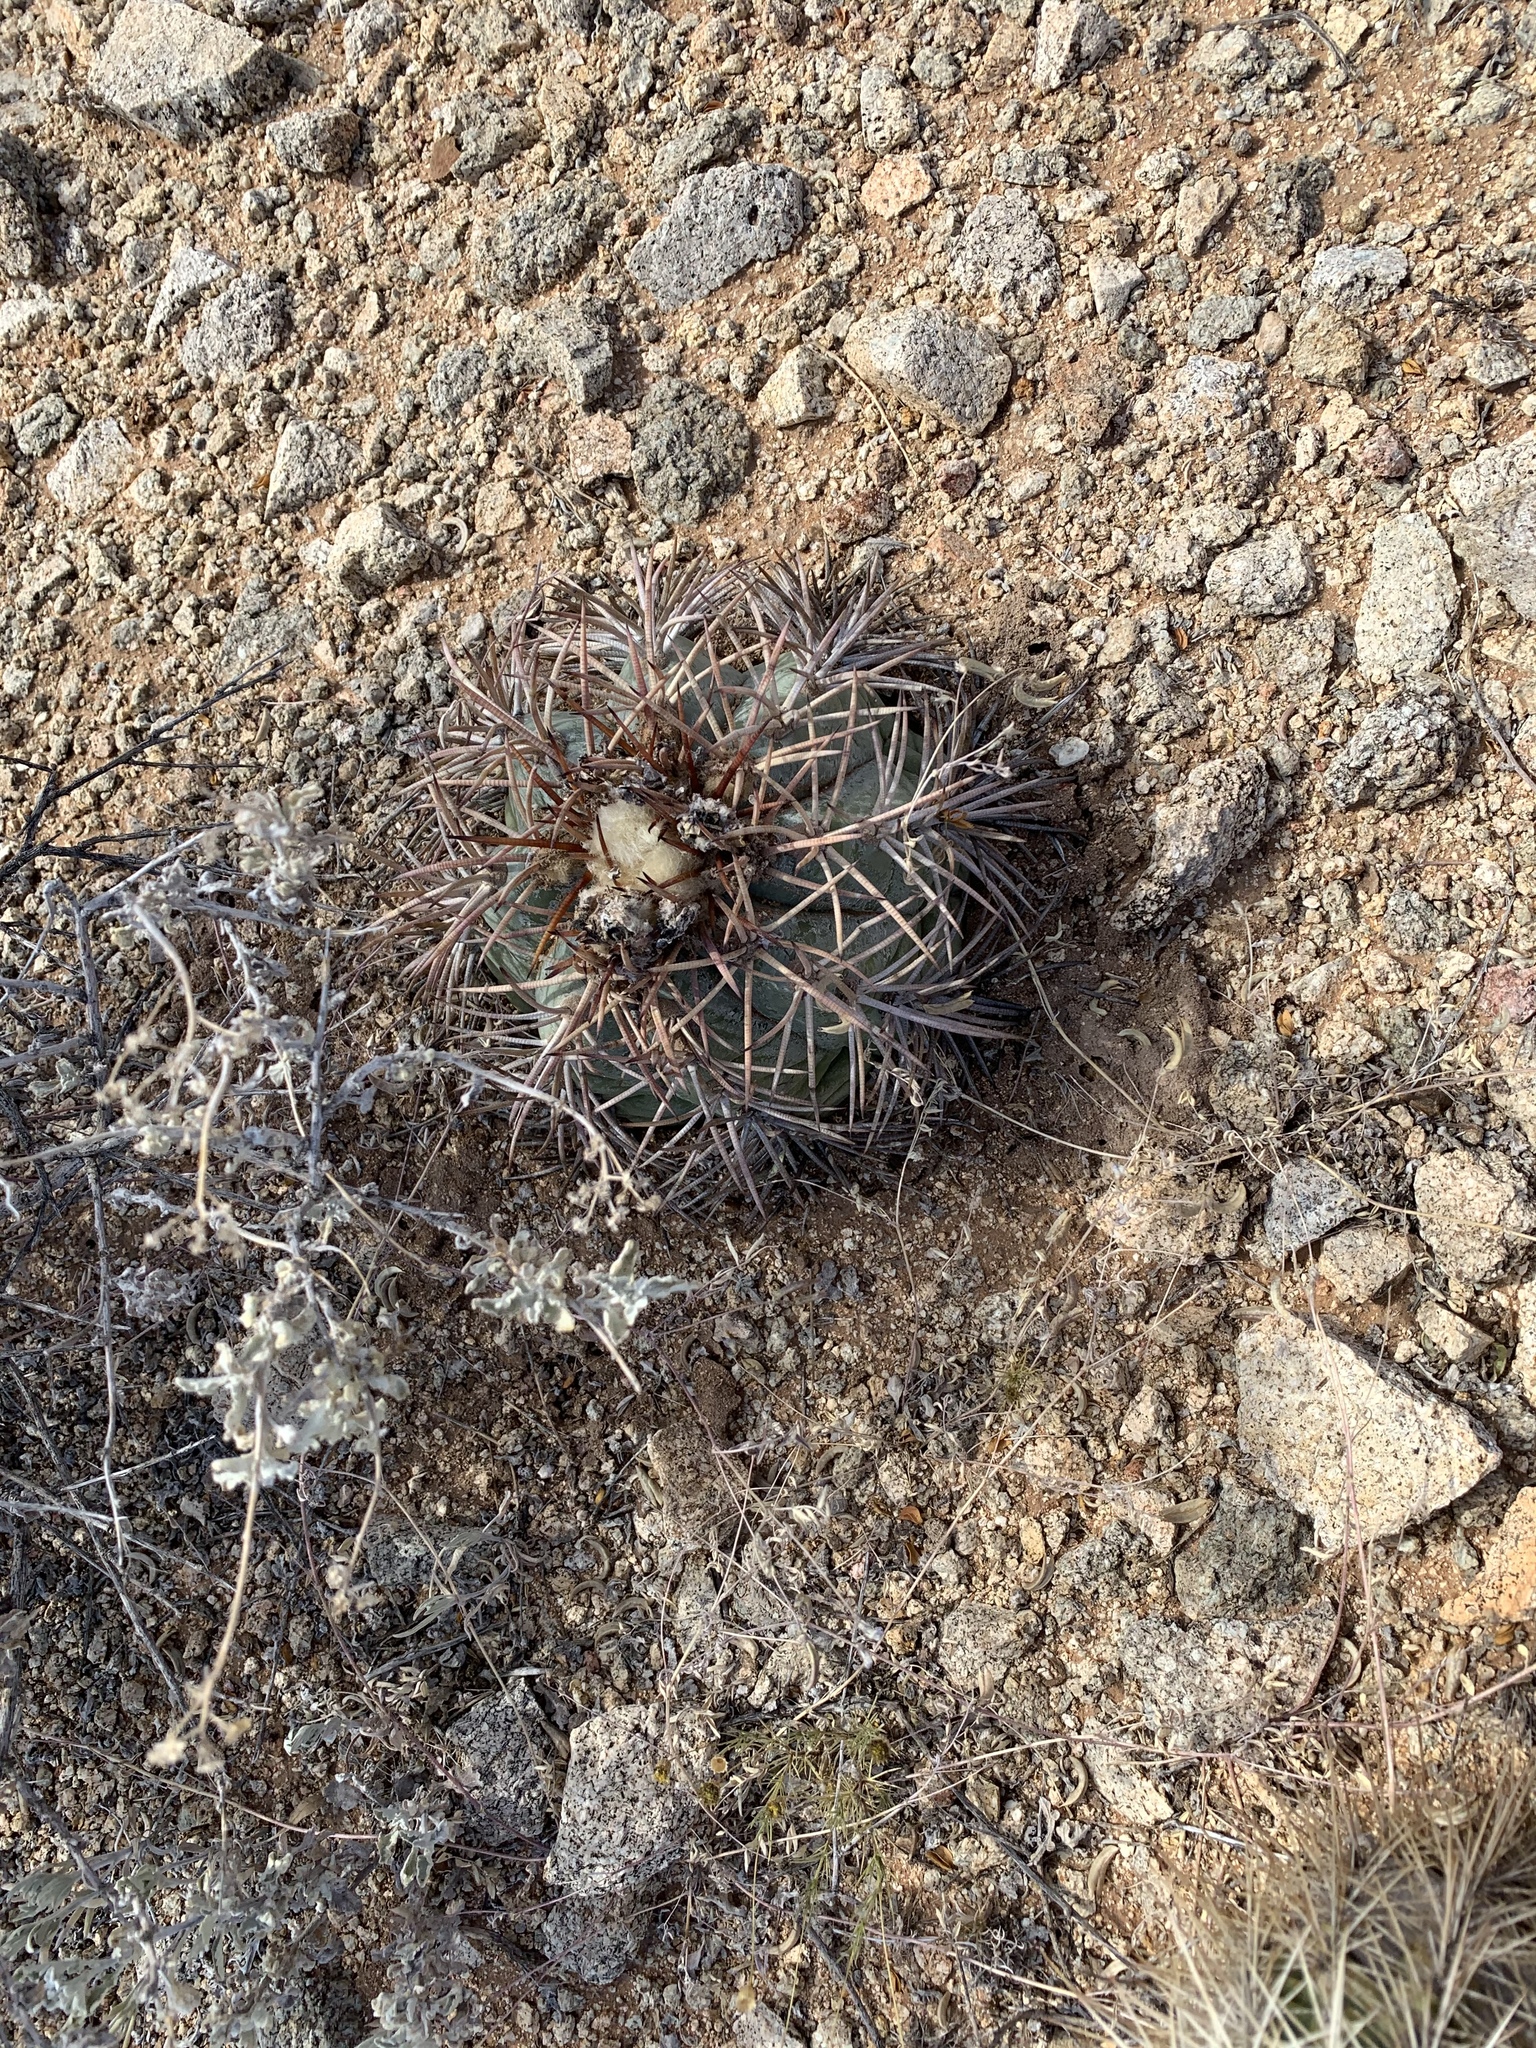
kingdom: Plantae
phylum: Tracheophyta
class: Magnoliopsida
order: Caryophyllales
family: Cactaceae
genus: Echinocactus
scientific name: Echinocactus horizonthalonius
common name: Devilshead
